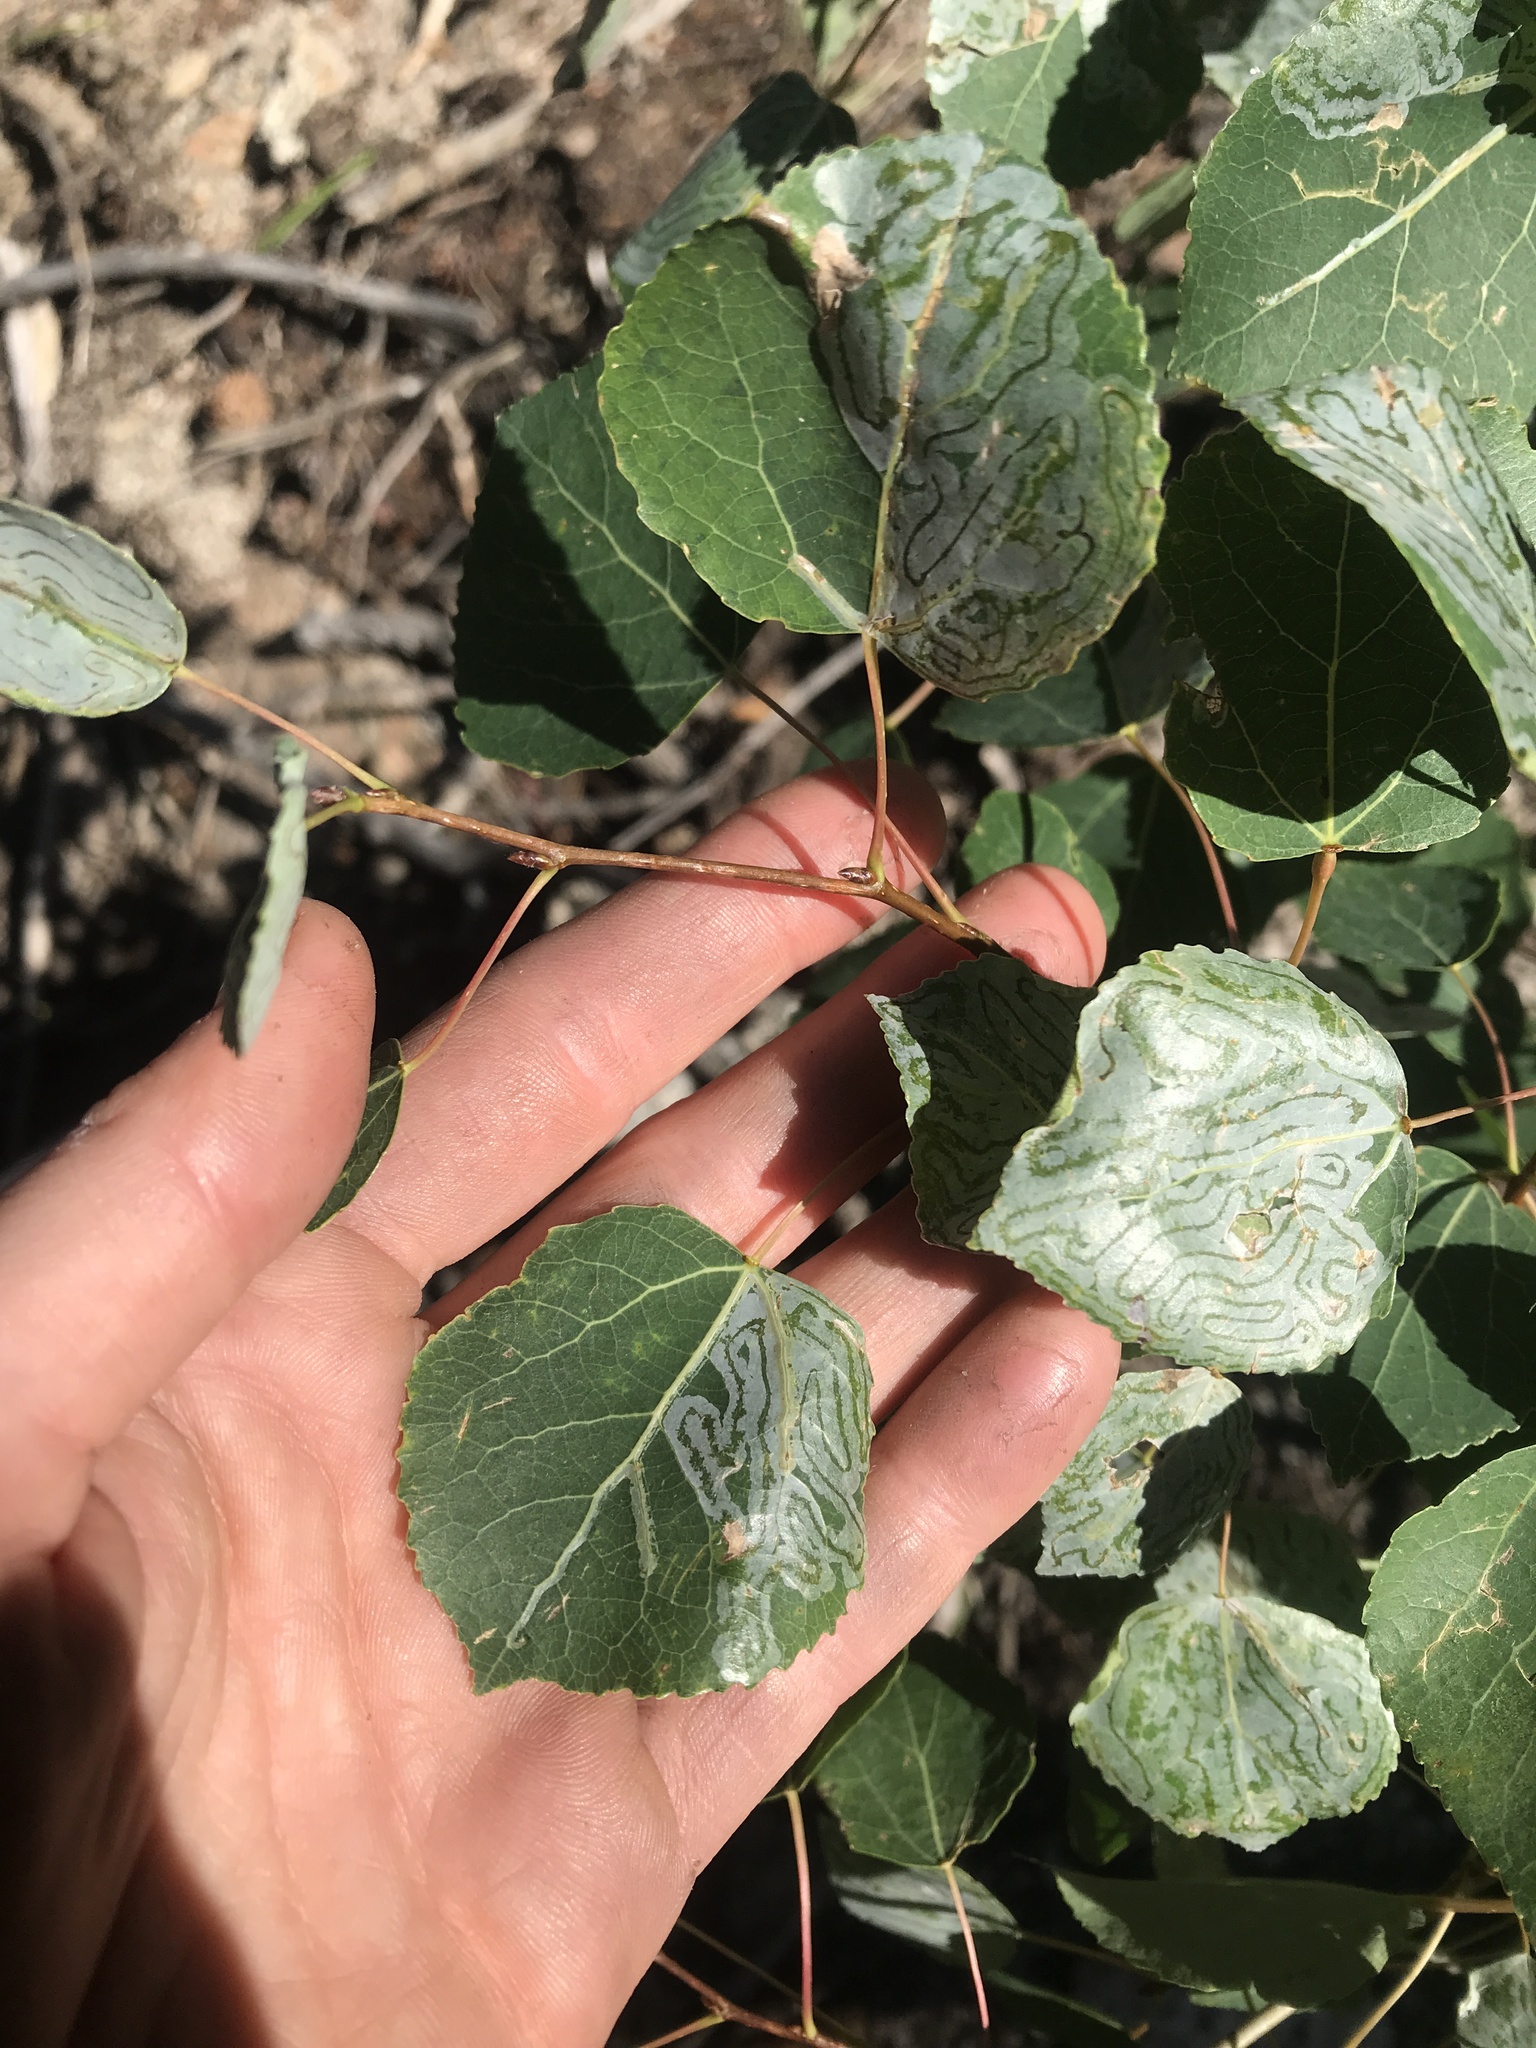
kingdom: Plantae
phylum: Tracheophyta
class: Magnoliopsida
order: Malpighiales
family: Salicaceae
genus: Populus
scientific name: Populus tremuloides
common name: Quaking aspen
